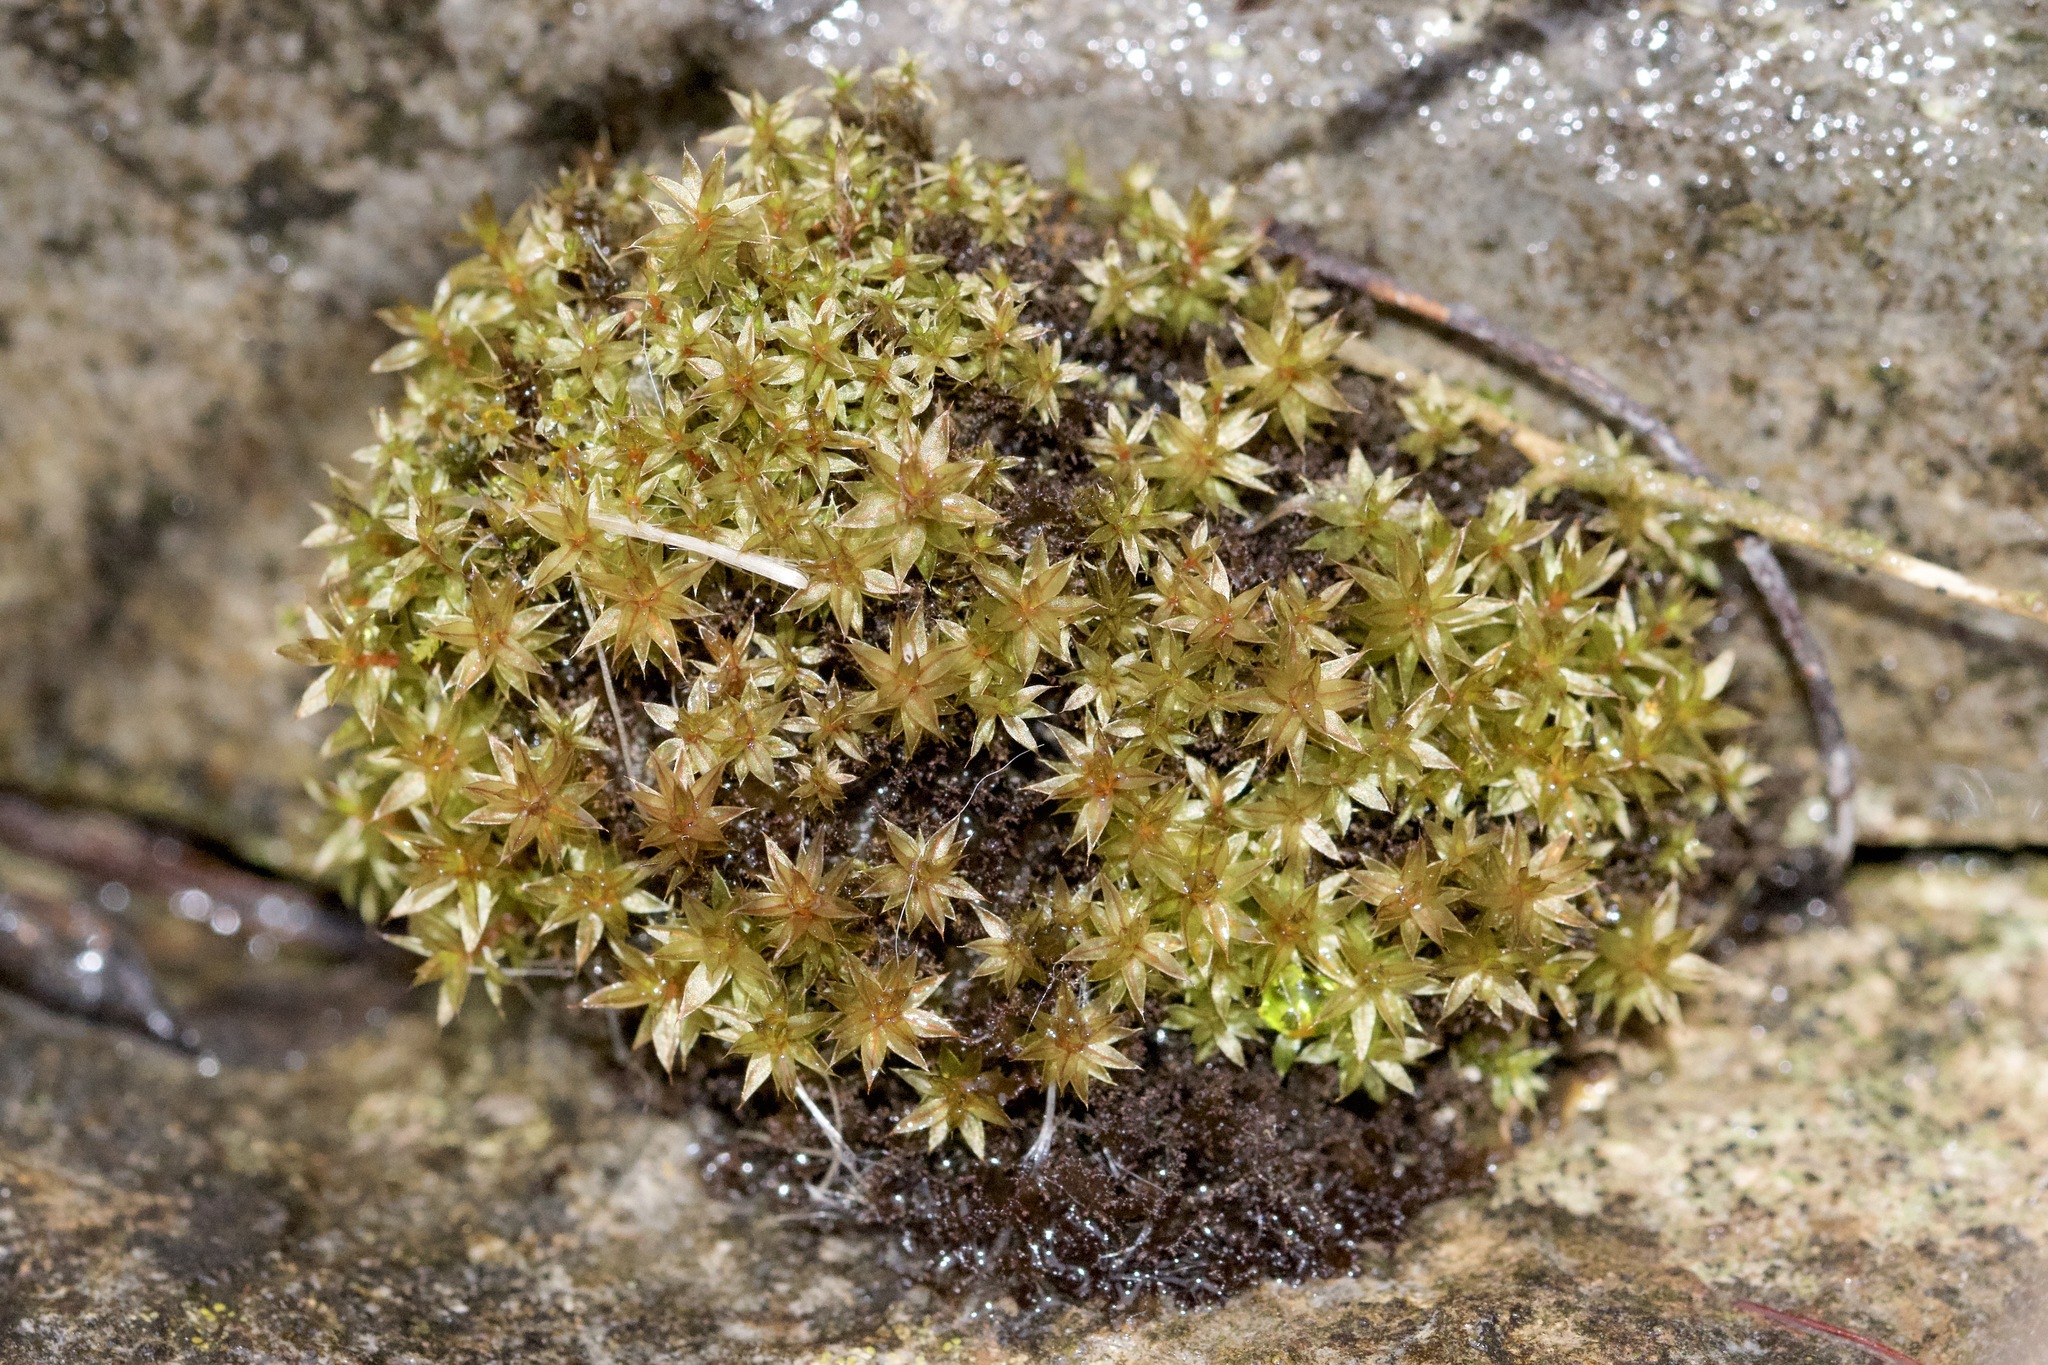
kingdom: Plantae
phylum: Bryophyta
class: Bryopsida
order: Bryales
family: Bryaceae
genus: Ptychostomum
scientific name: Ptychostomum pseudotriquetrum
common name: Long-leaved thread moss
